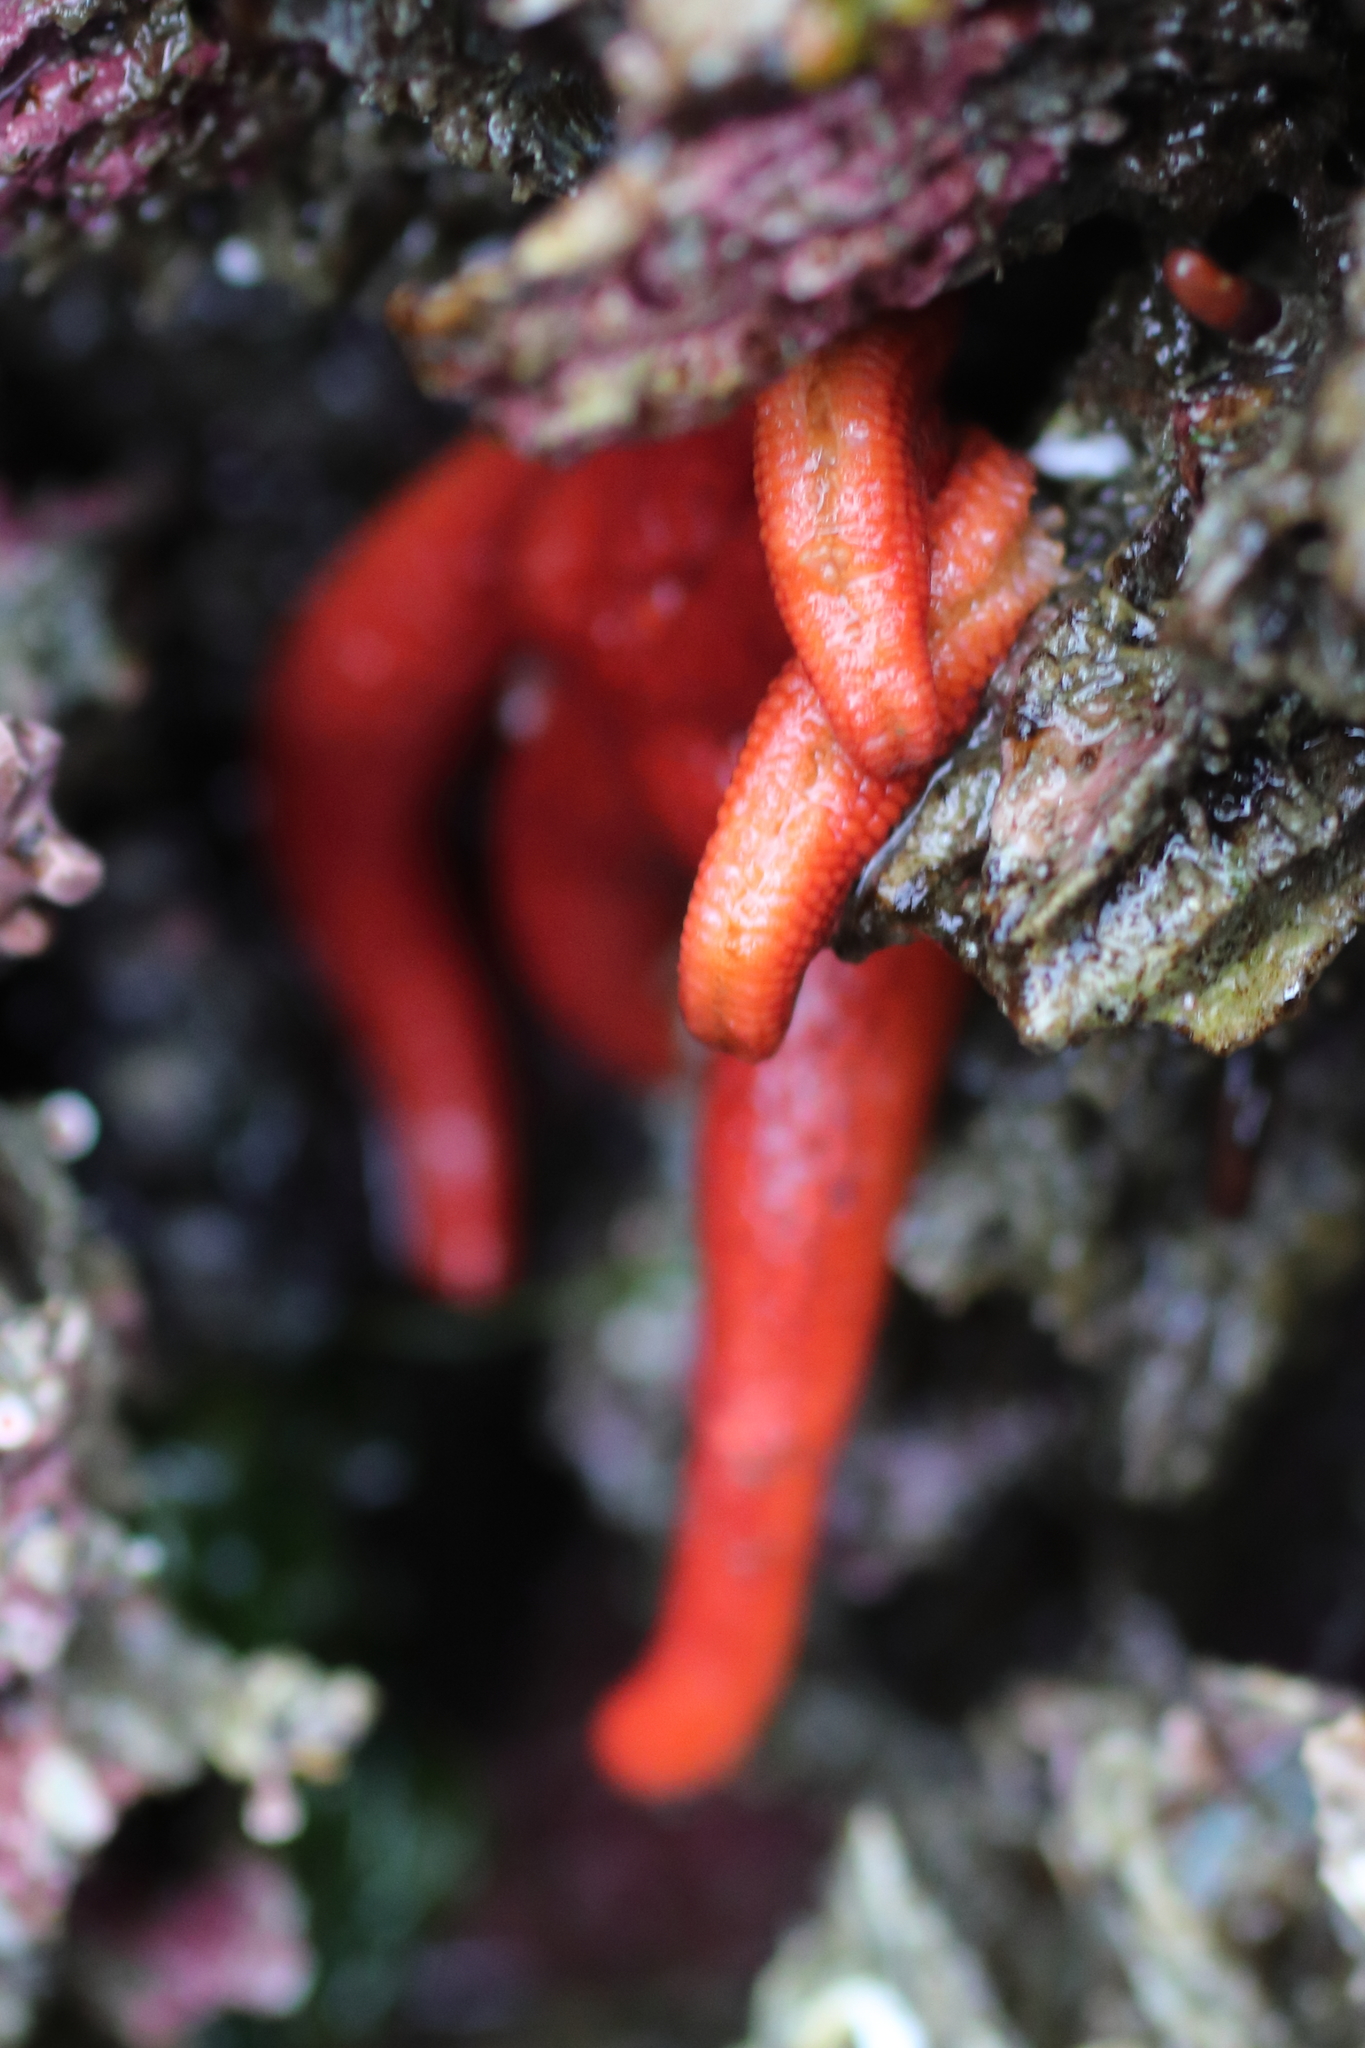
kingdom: Animalia
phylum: Echinodermata
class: Asteroidea
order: Spinulosida
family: Echinasteridae
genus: Henricia
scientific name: Henricia leviuscula
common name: Pacific blood star
